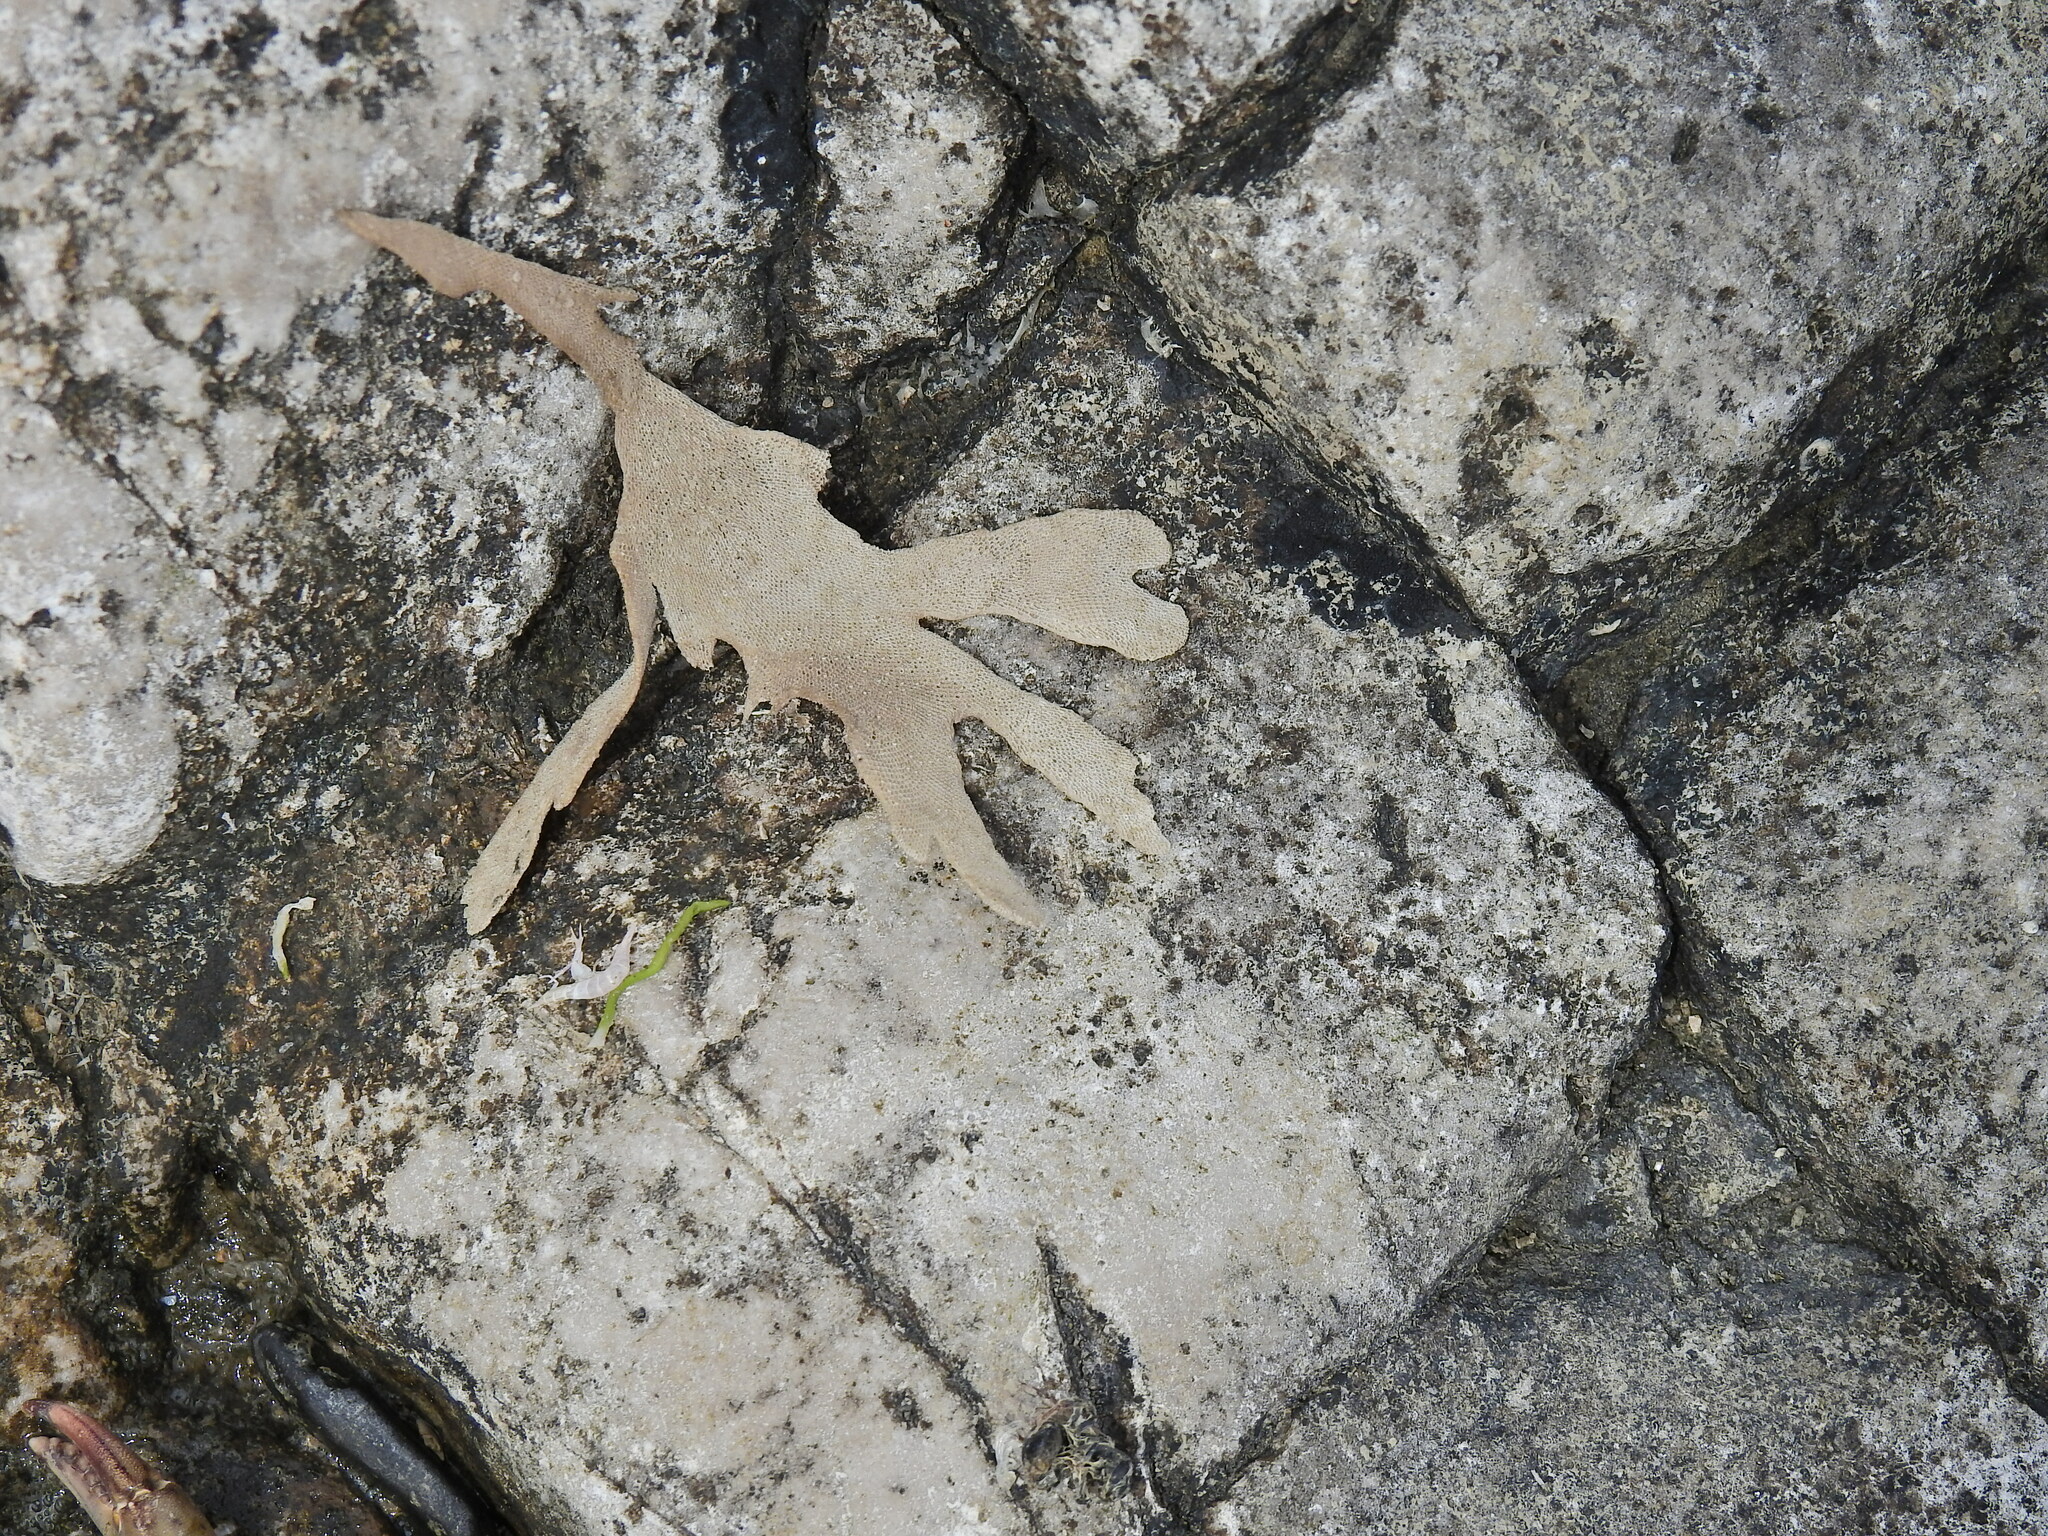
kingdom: Animalia
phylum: Bryozoa
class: Gymnolaemata
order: Cheilostomatida
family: Flustridae
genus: Flustra
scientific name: Flustra foliacea
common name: Hornwrack
